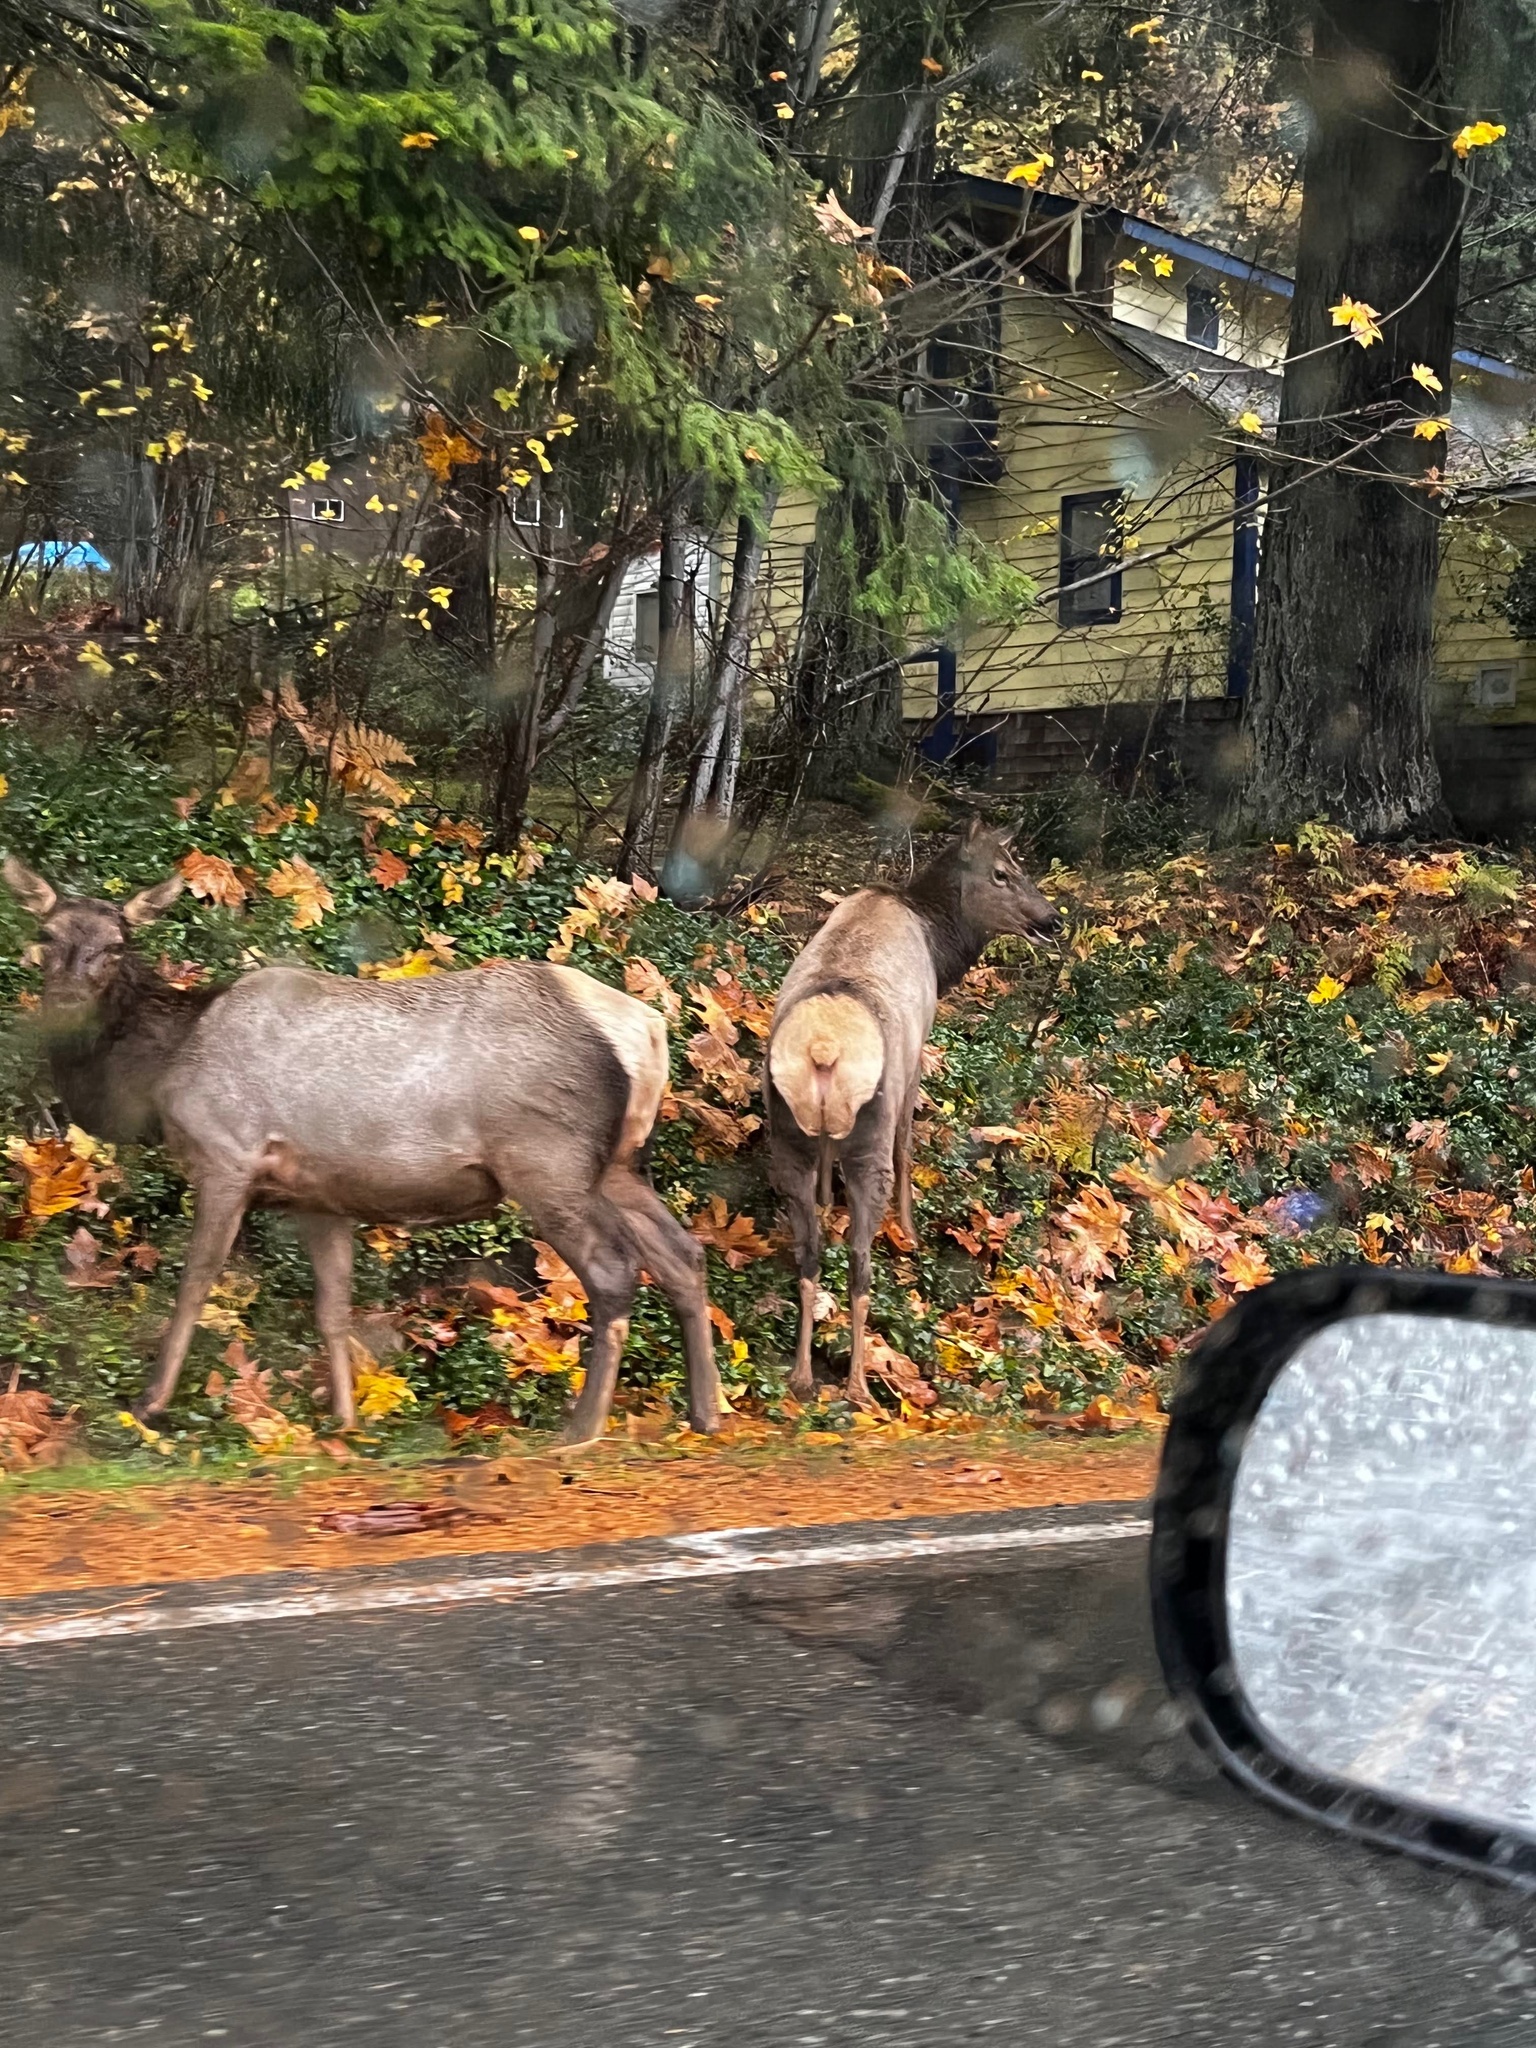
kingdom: Animalia
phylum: Chordata
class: Mammalia
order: Artiodactyla
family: Cervidae
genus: Cervus
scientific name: Cervus elaphus
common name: Red deer
